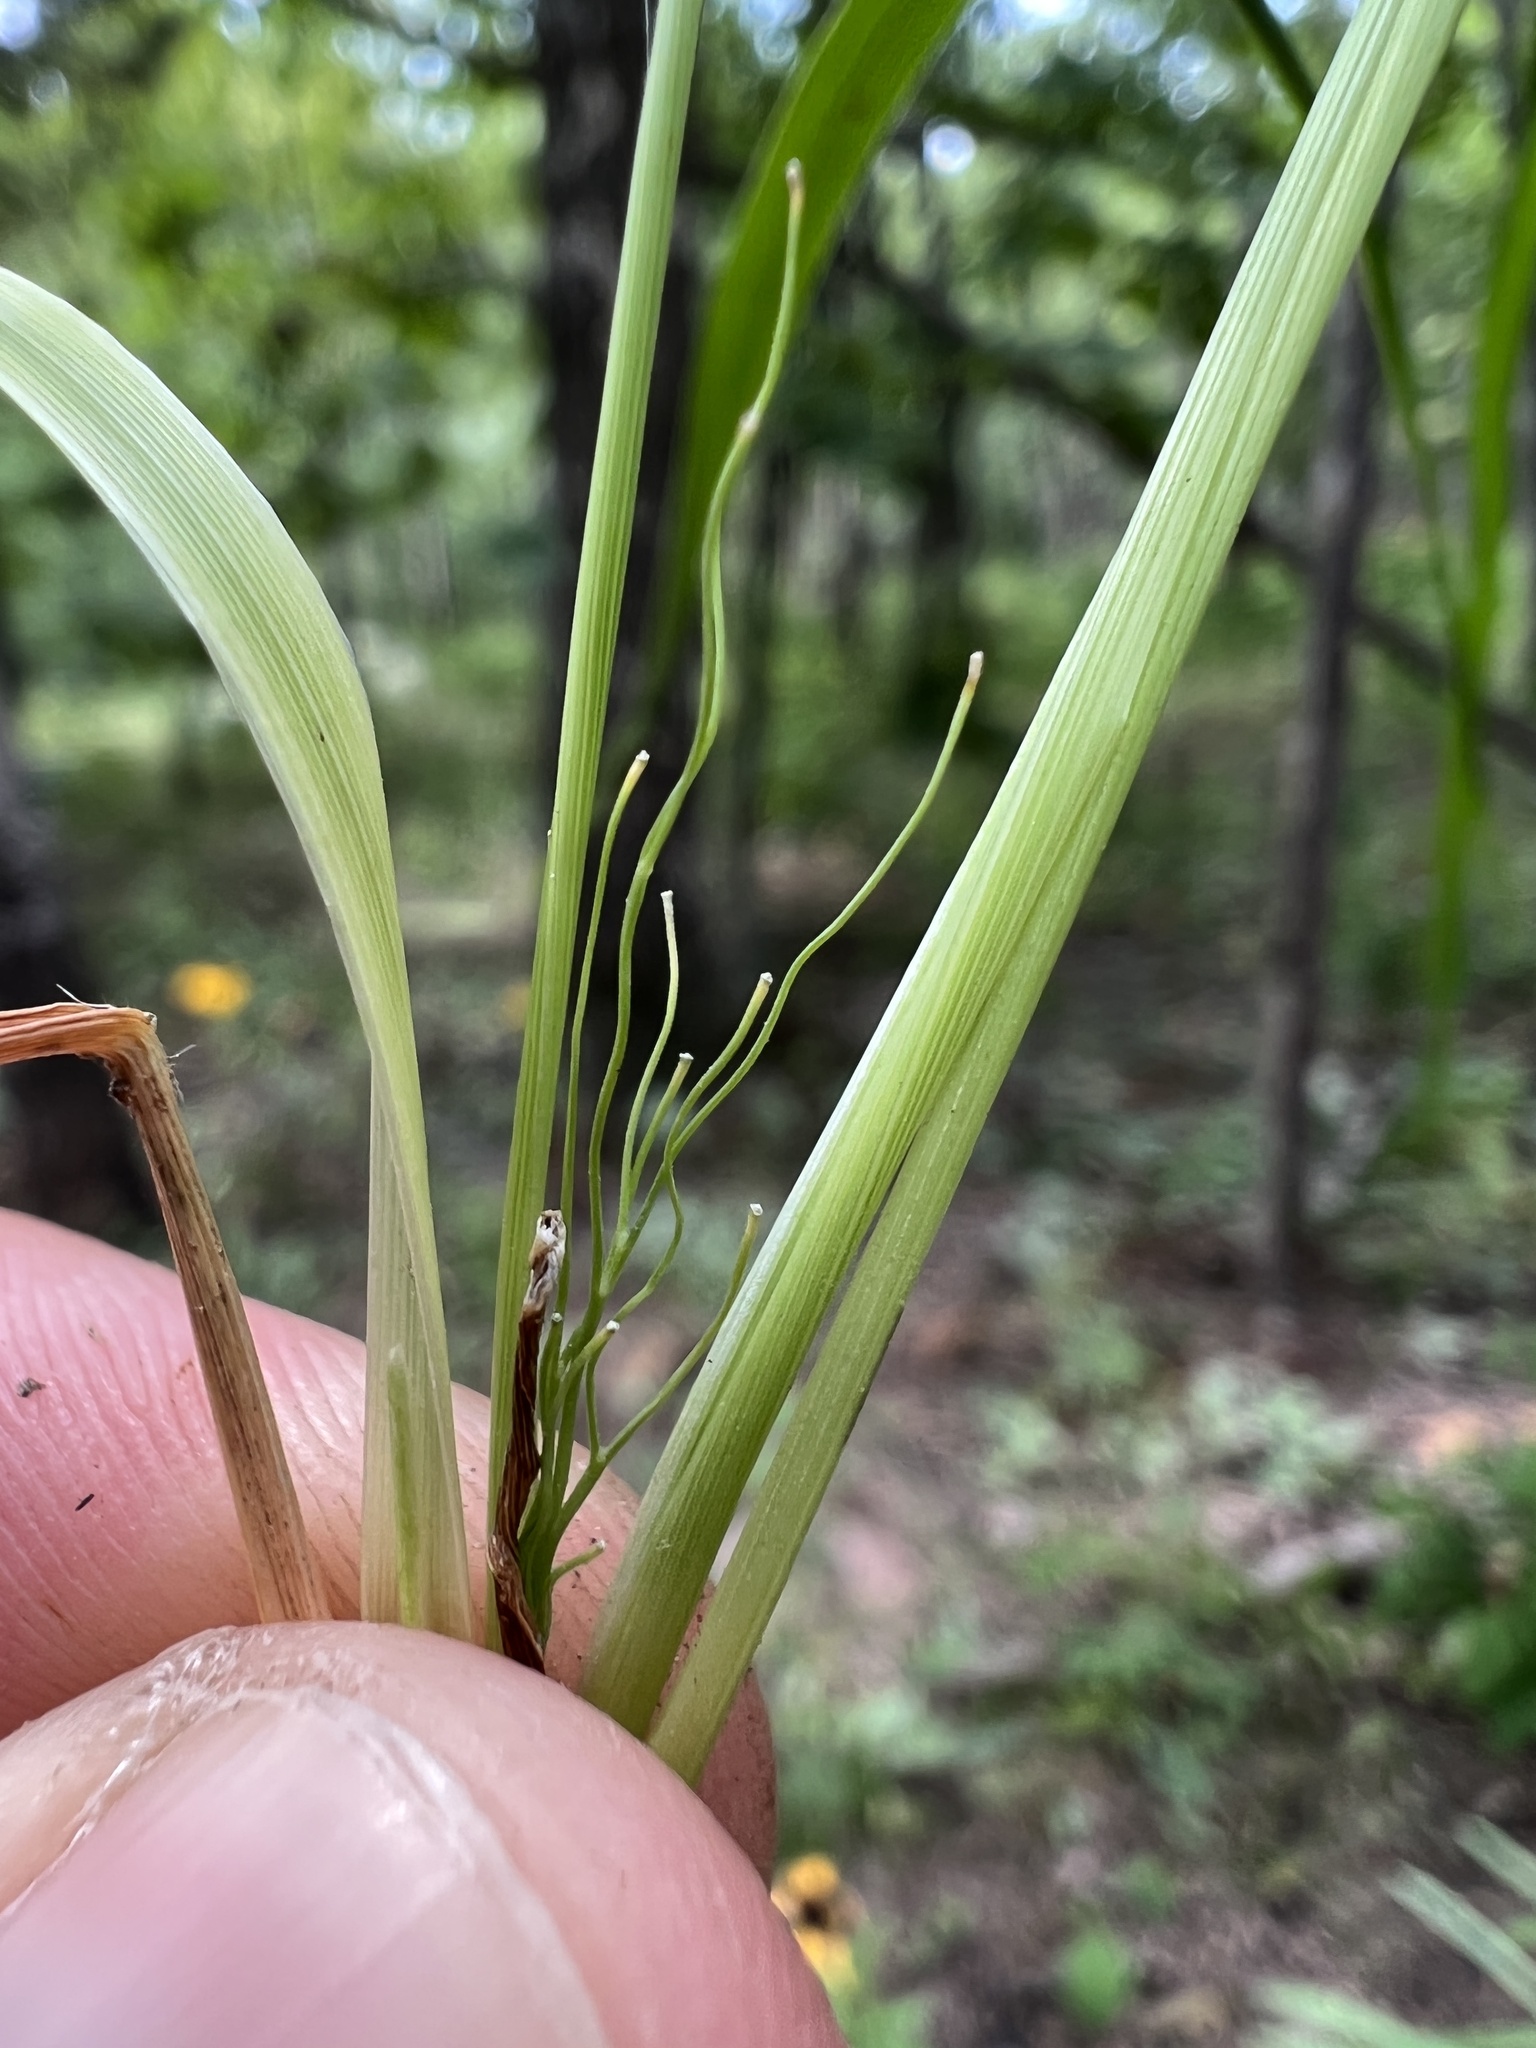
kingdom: Plantae
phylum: Tracheophyta
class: Liliopsida
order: Poales
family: Poaceae
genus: Dichanthelium
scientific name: Dichanthelium linearifolium
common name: Linear-leaved panicgrass
